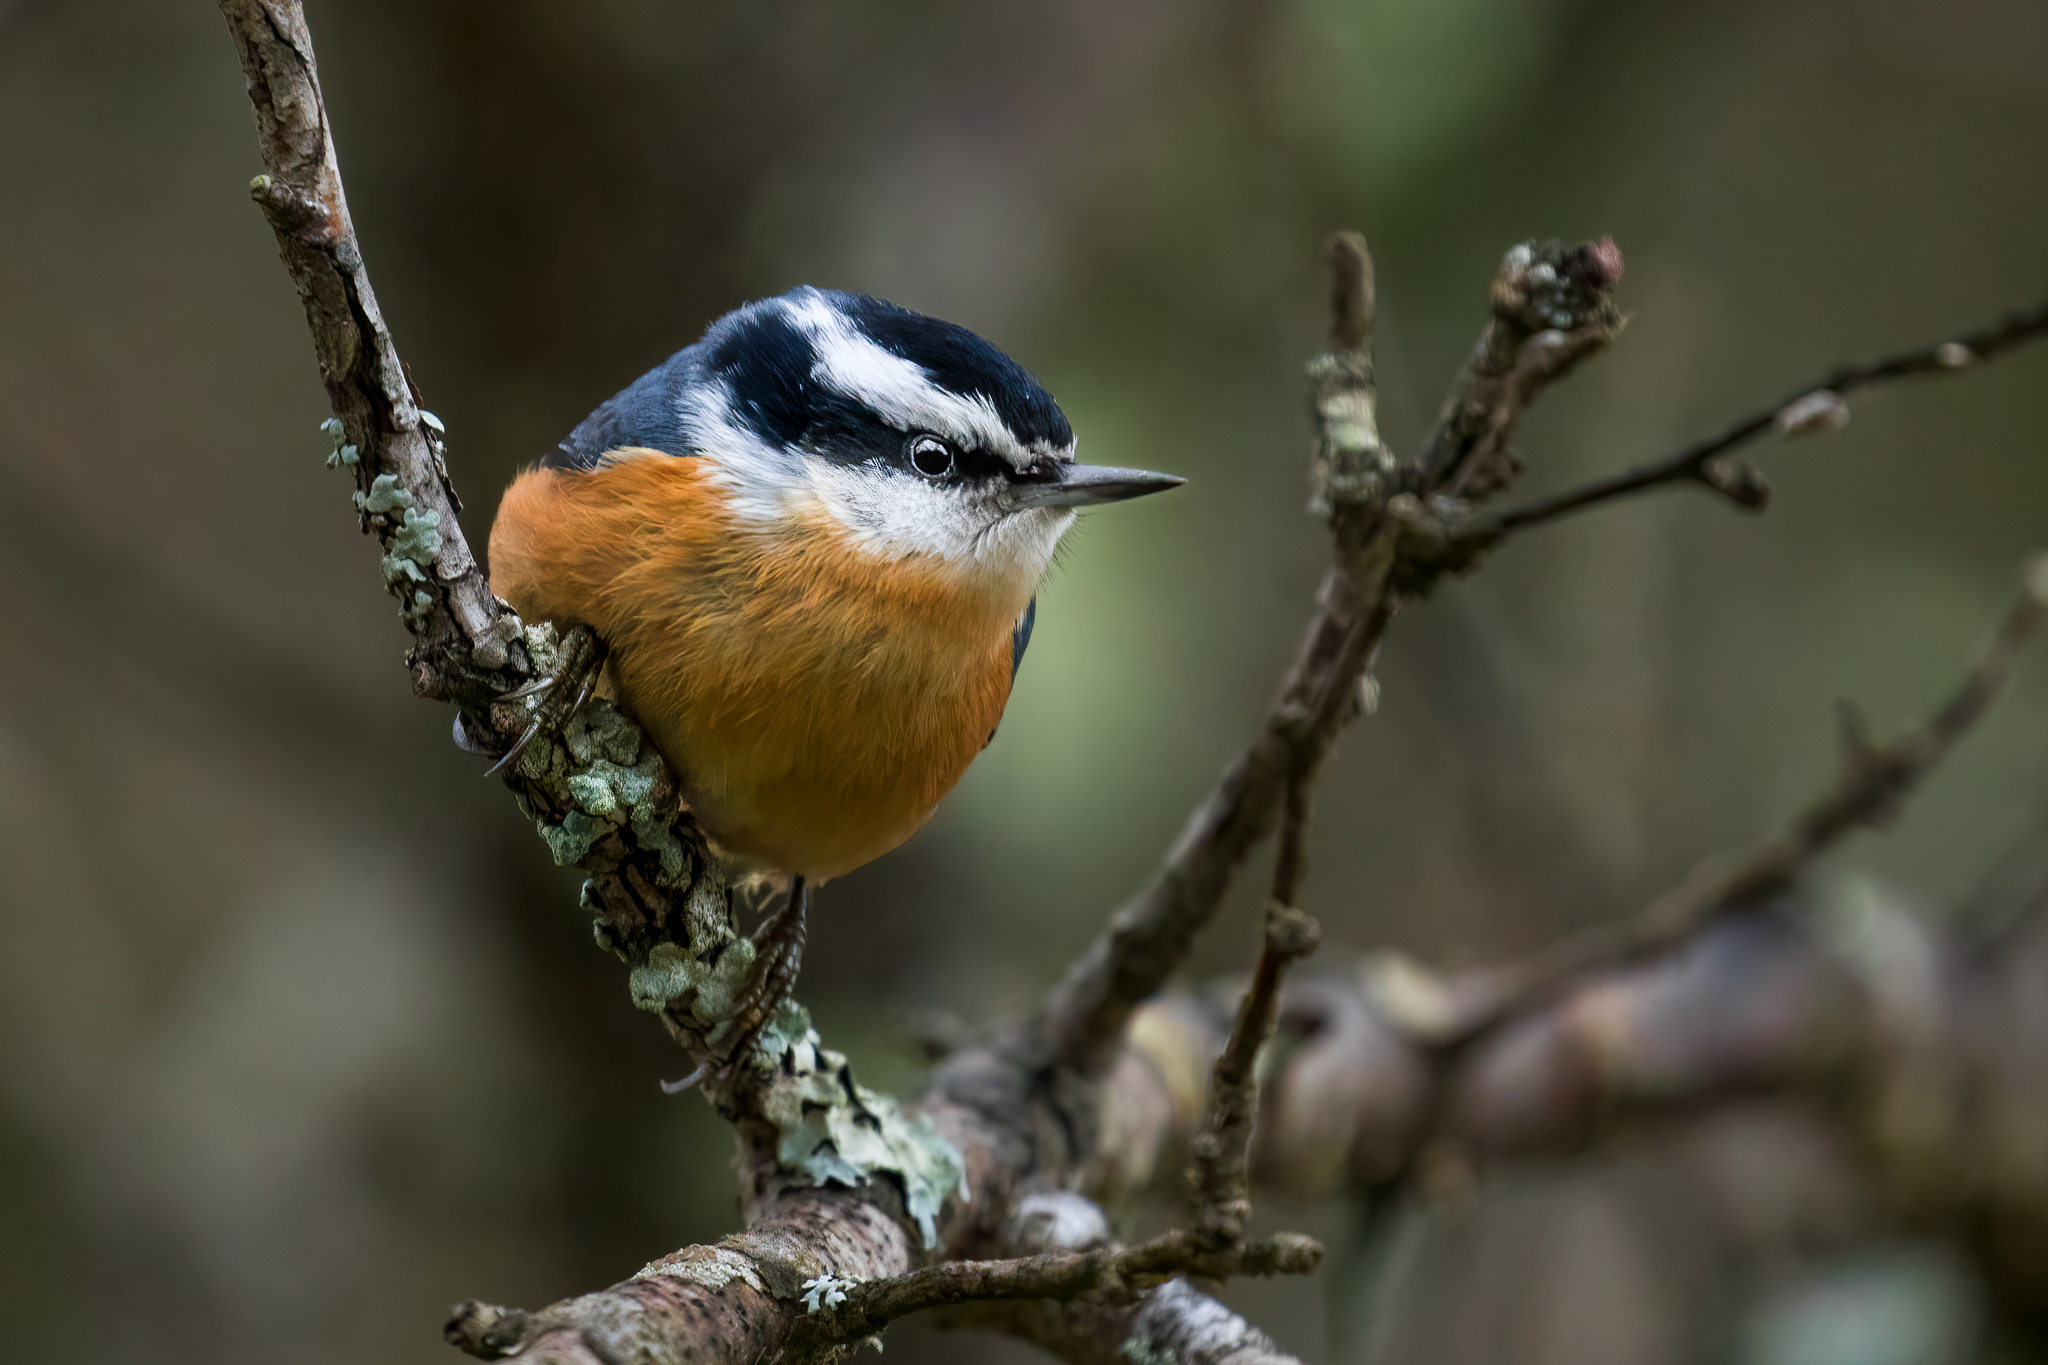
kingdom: Animalia
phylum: Chordata
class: Aves
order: Passeriformes
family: Sittidae
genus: Sitta
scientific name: Sitta canadensis
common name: Red-breasted nuthatch
